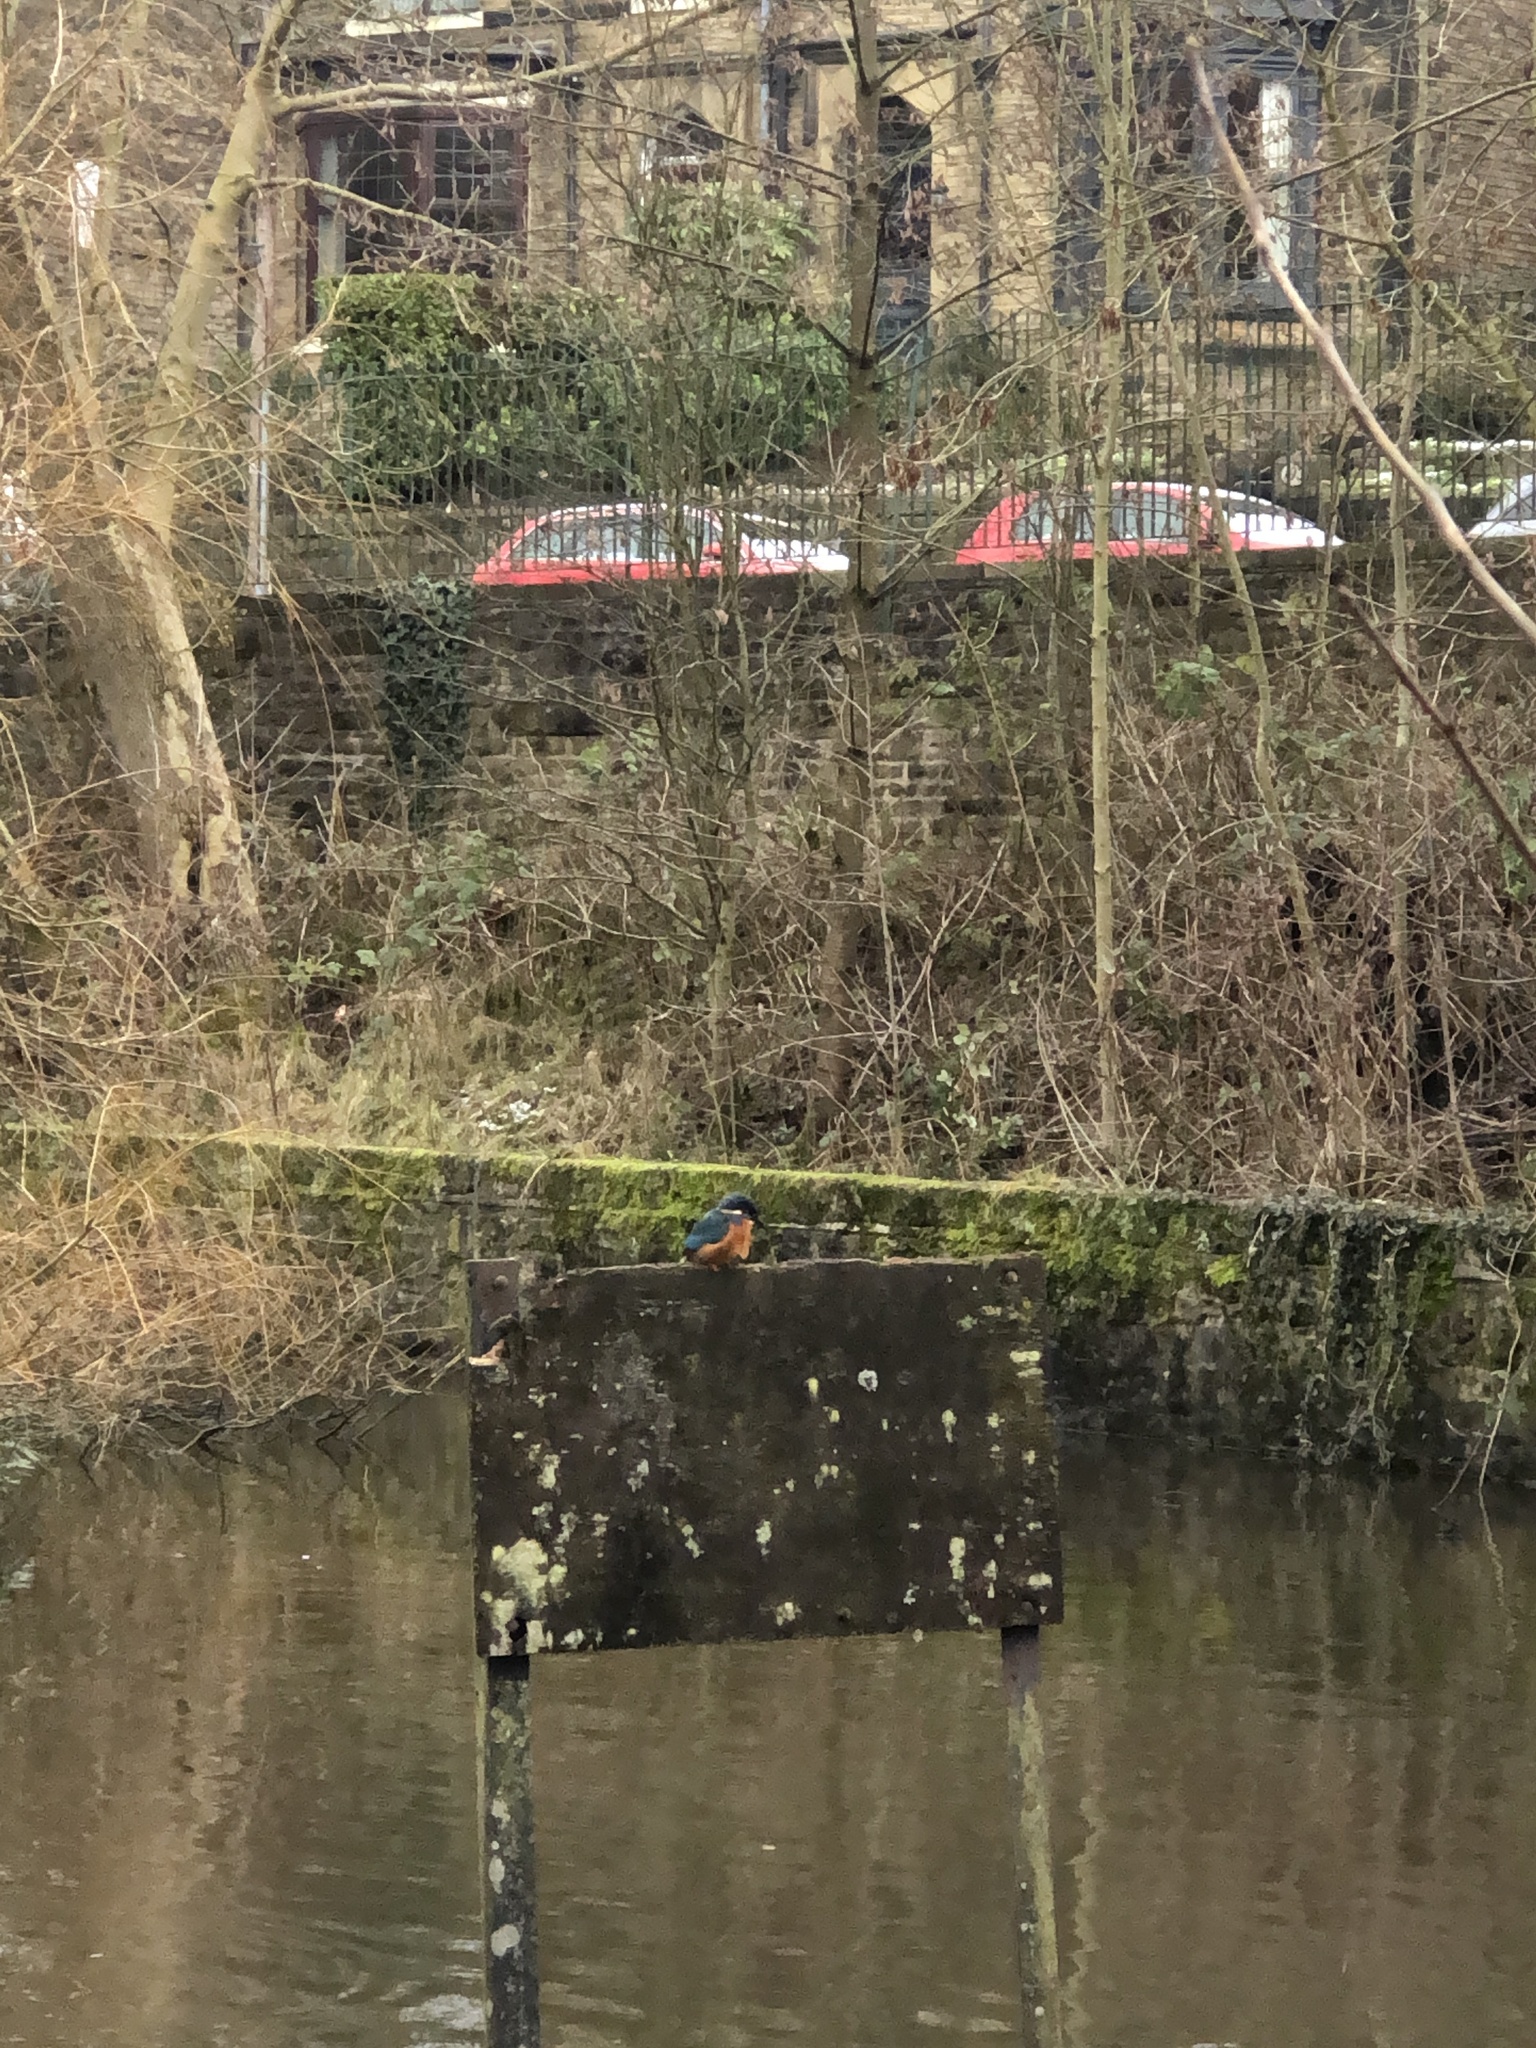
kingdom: Animalia
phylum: Chordata
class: Aves
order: Coraciiformes
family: Alcedinidae
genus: Alcedo
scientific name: Alcedo atthis
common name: Common kingfisher
